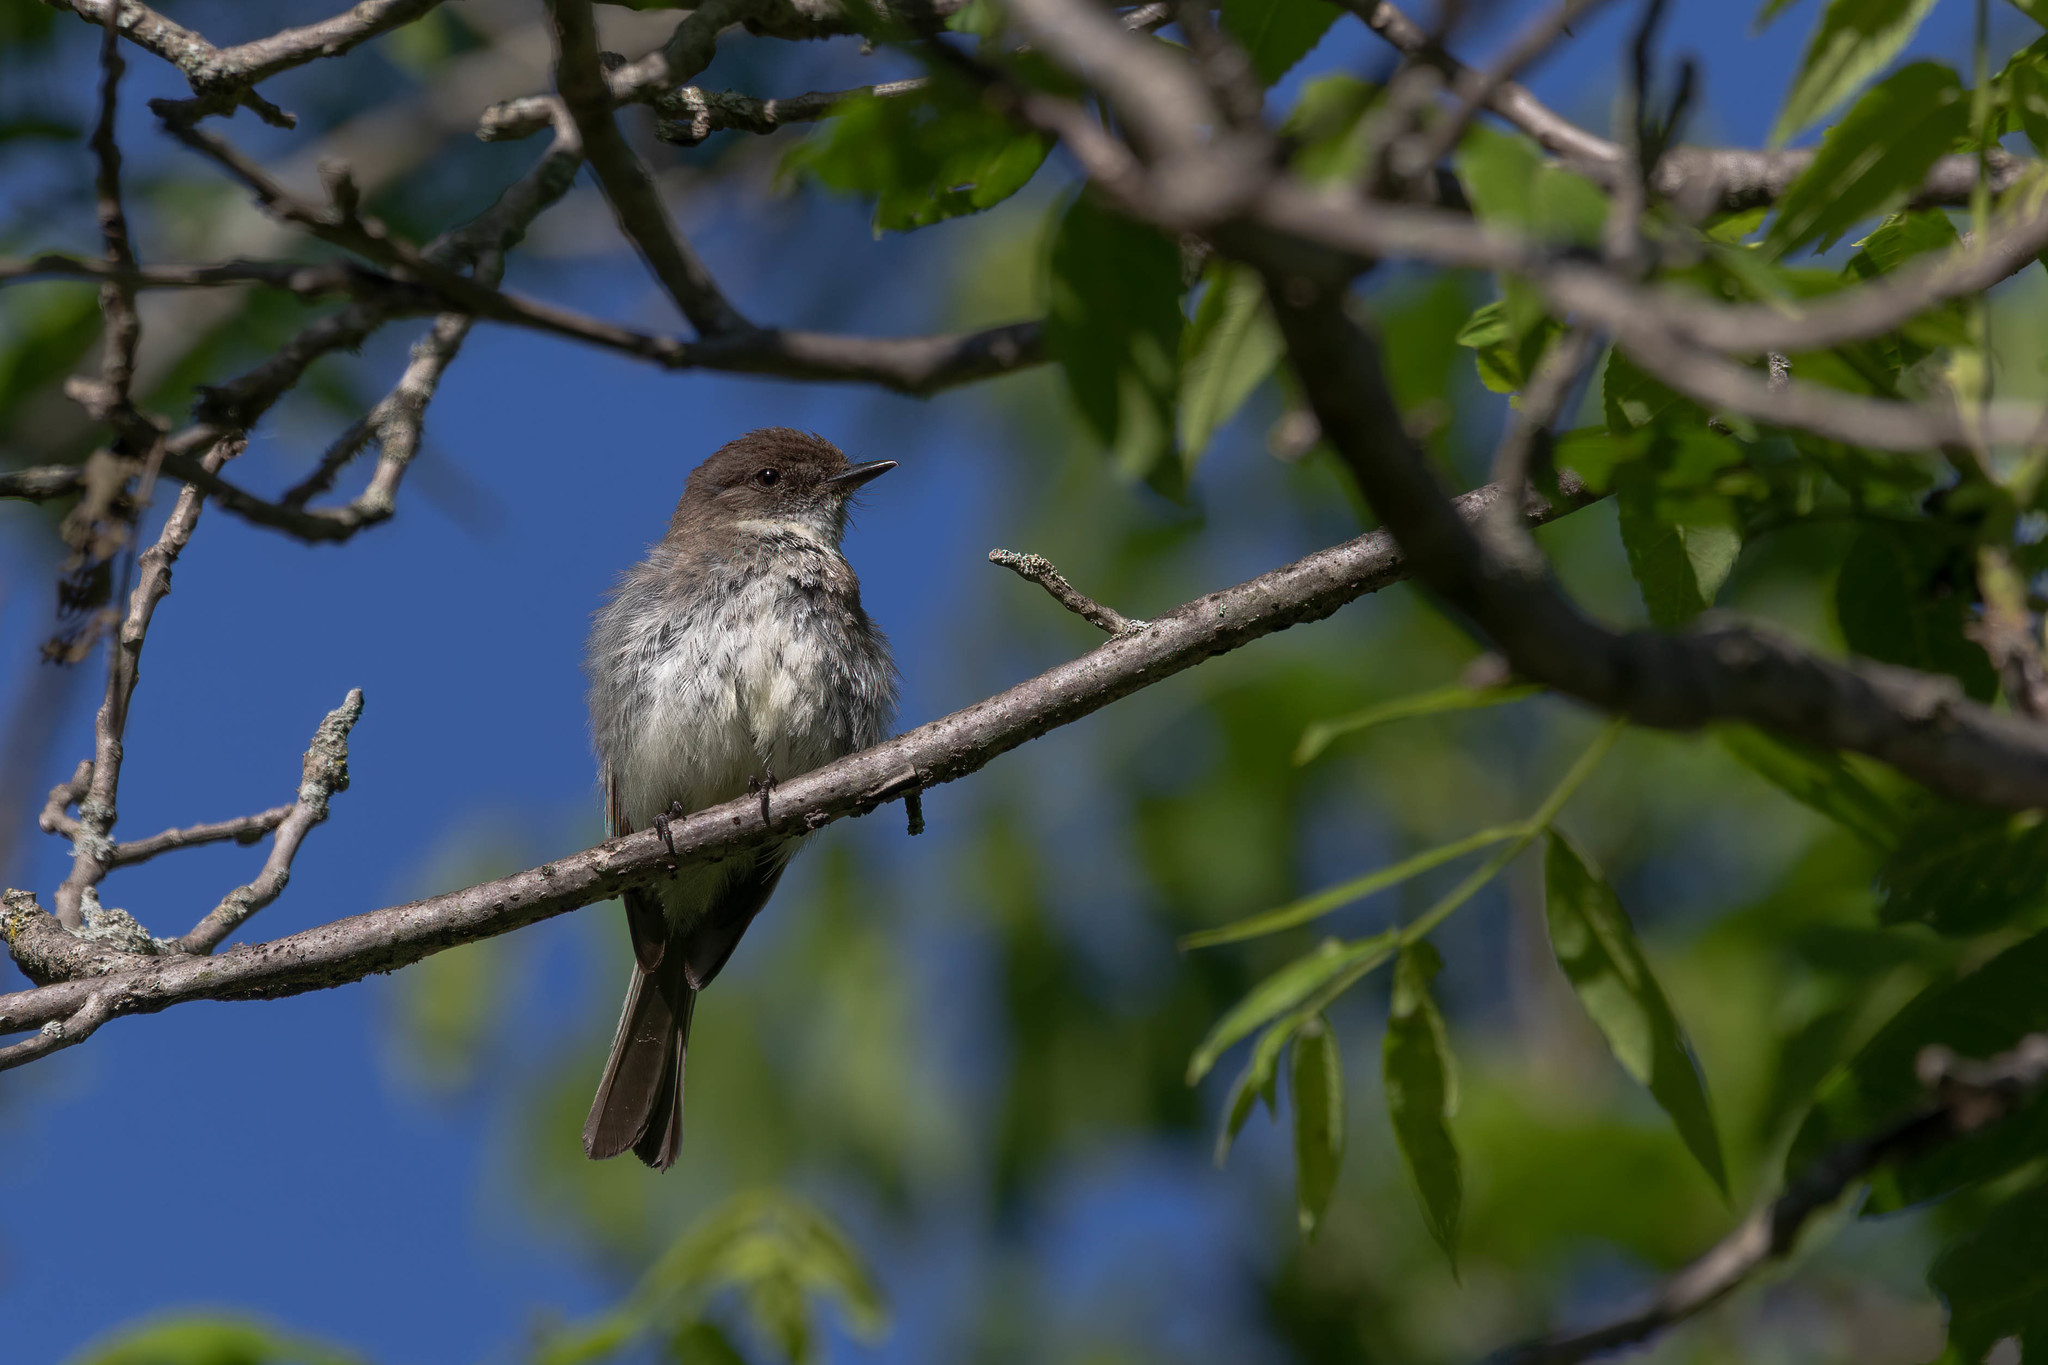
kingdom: Animalia
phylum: Chordata
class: Aves
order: Passeriformes
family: Tyrannidae
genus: Sayornis
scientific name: Sayornis phoebe
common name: Eastern phoebe
